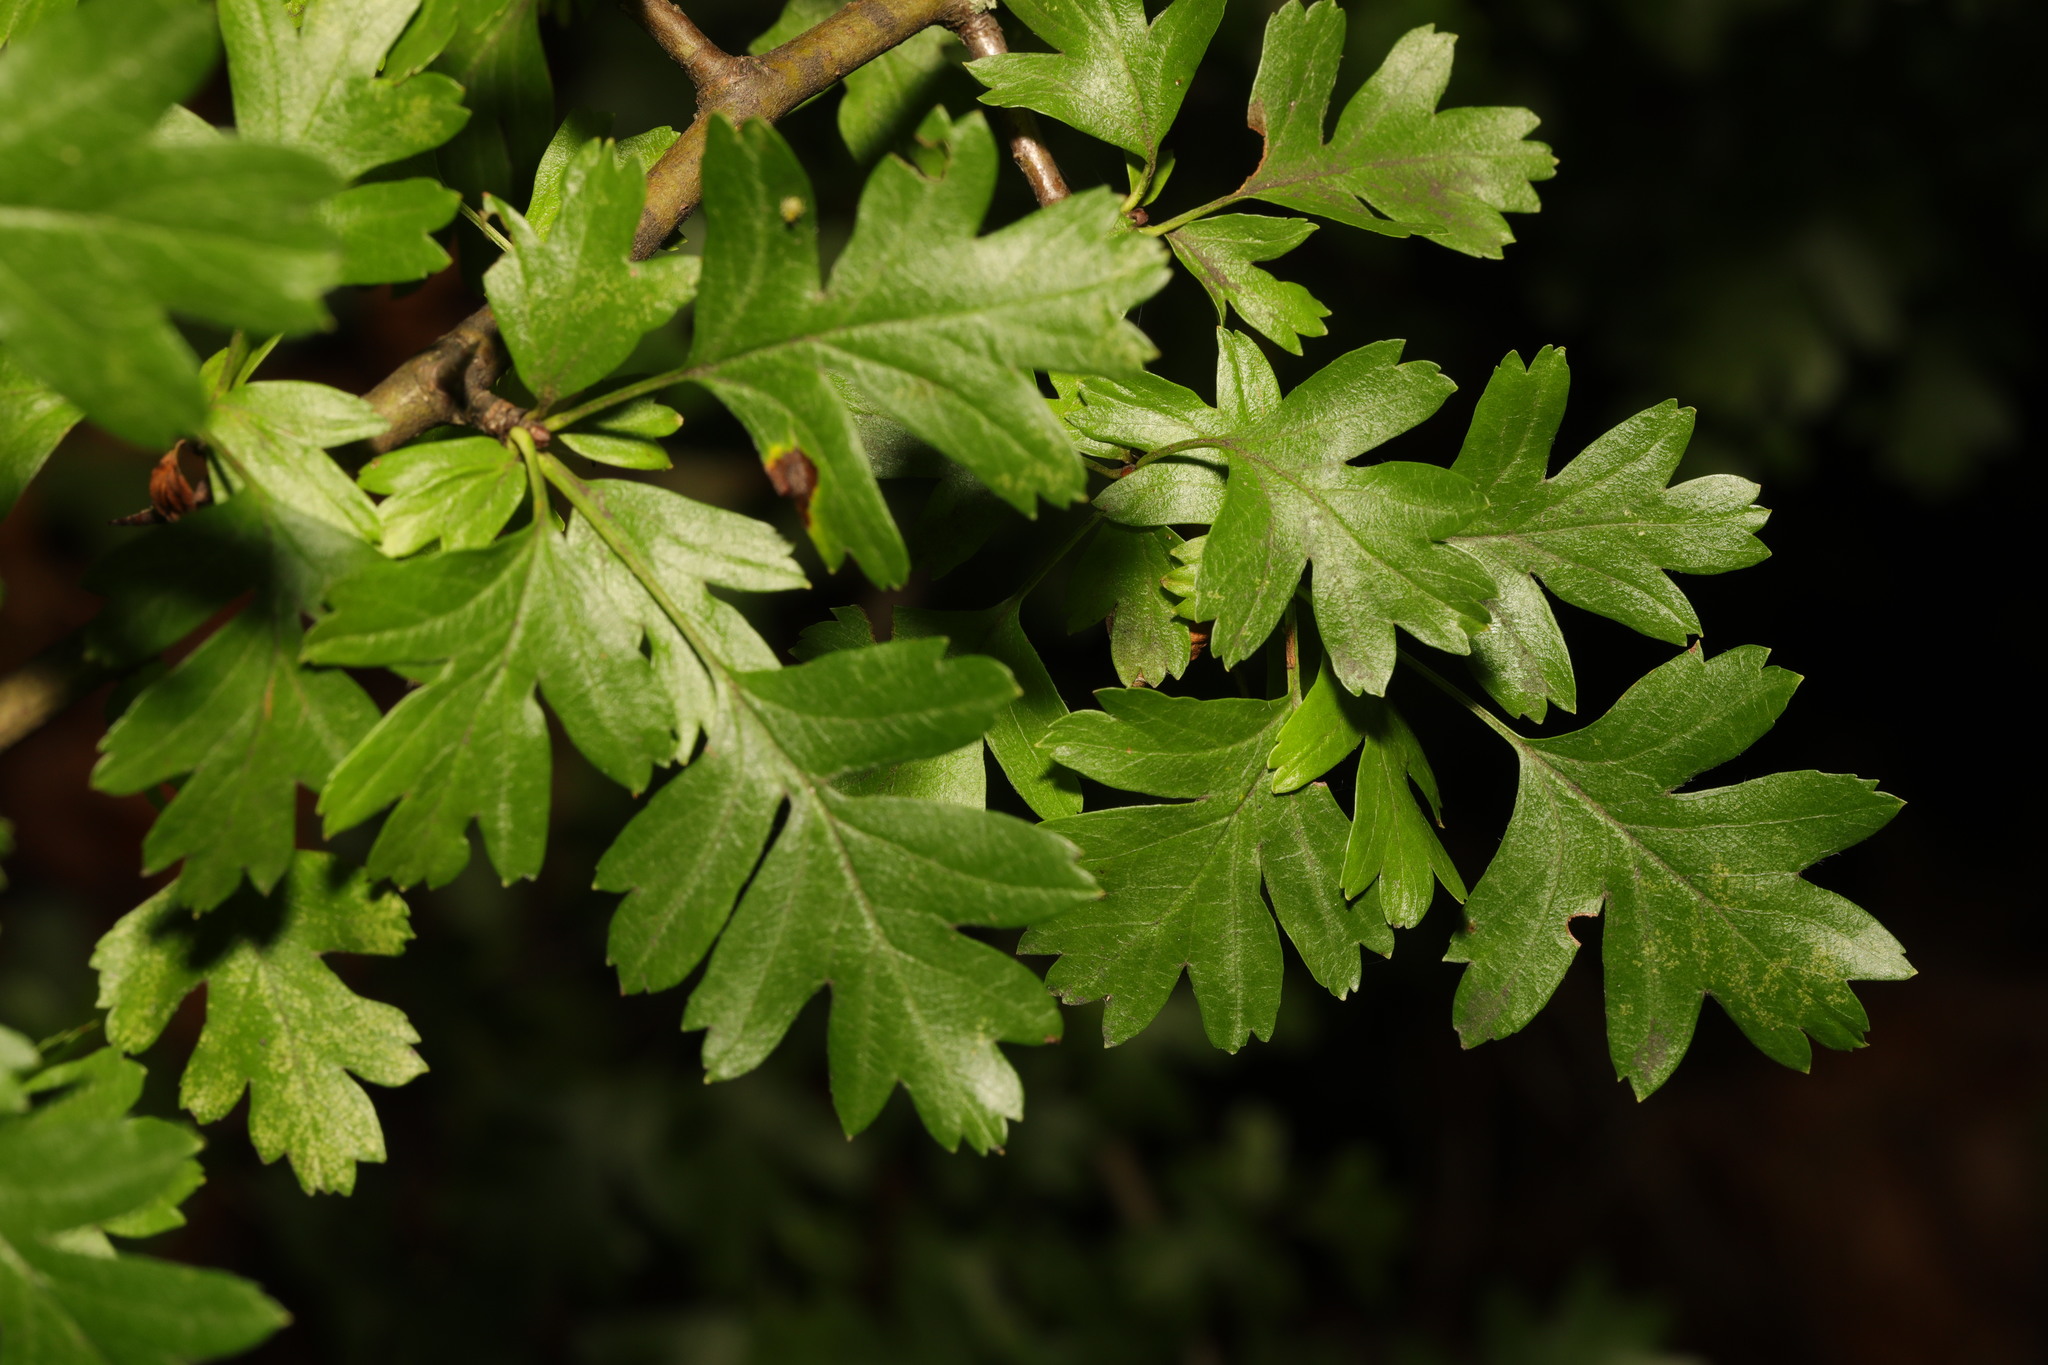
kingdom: Plantae
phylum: Tracheophyta
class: Magnoliopsida
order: Rosales
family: Rosaceae
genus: Crataegus
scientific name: Crataegus monogyna
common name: Hawthorn
